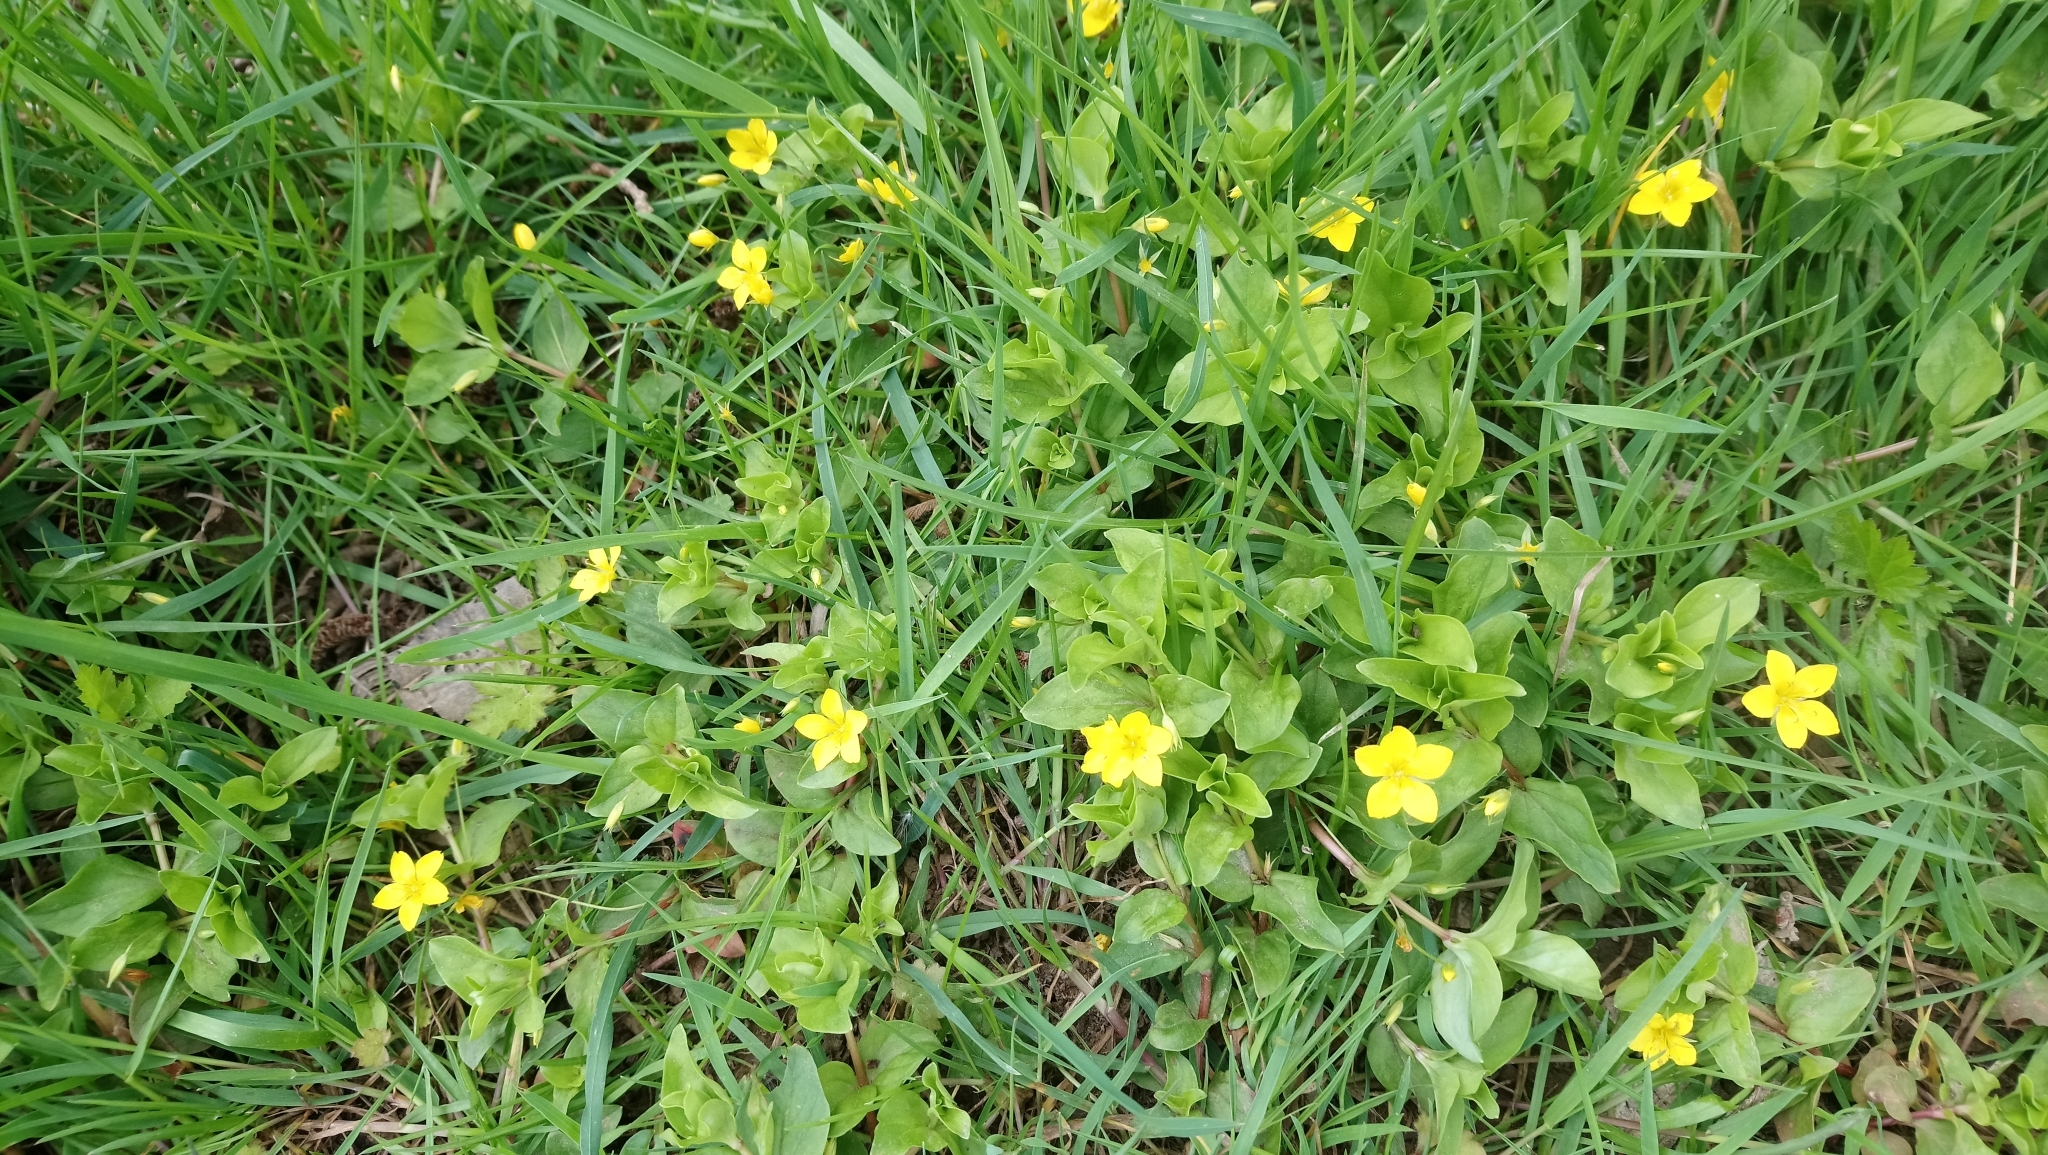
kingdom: Plantae
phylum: Tracheophyta
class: Magnoliopsida
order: Ericales
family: Primulaceae
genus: Lysimachia
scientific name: Lysimachia nemorum
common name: Yellow pimpernel
